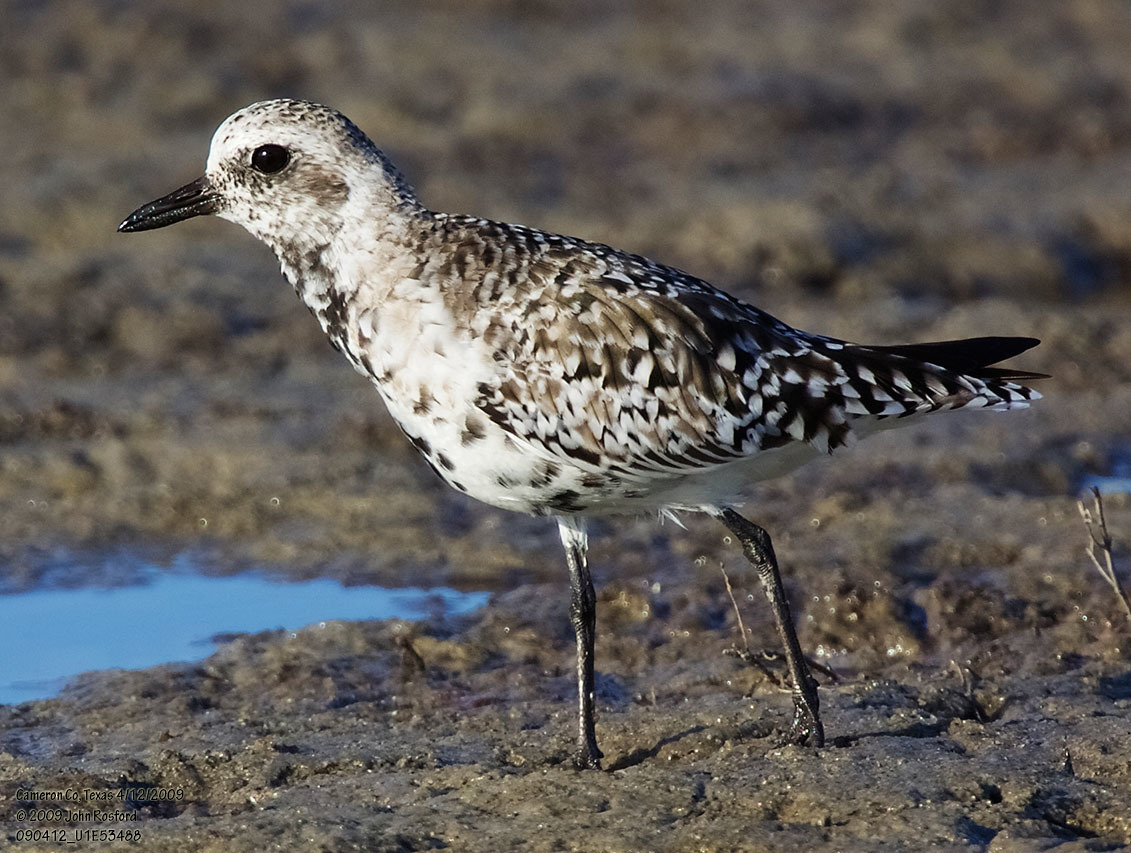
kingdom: Animalia
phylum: Chordata
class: Aves
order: Charadriiformes
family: Charadriidae
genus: Pluvialis
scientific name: Pluvialis squatarola
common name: Grey plover
